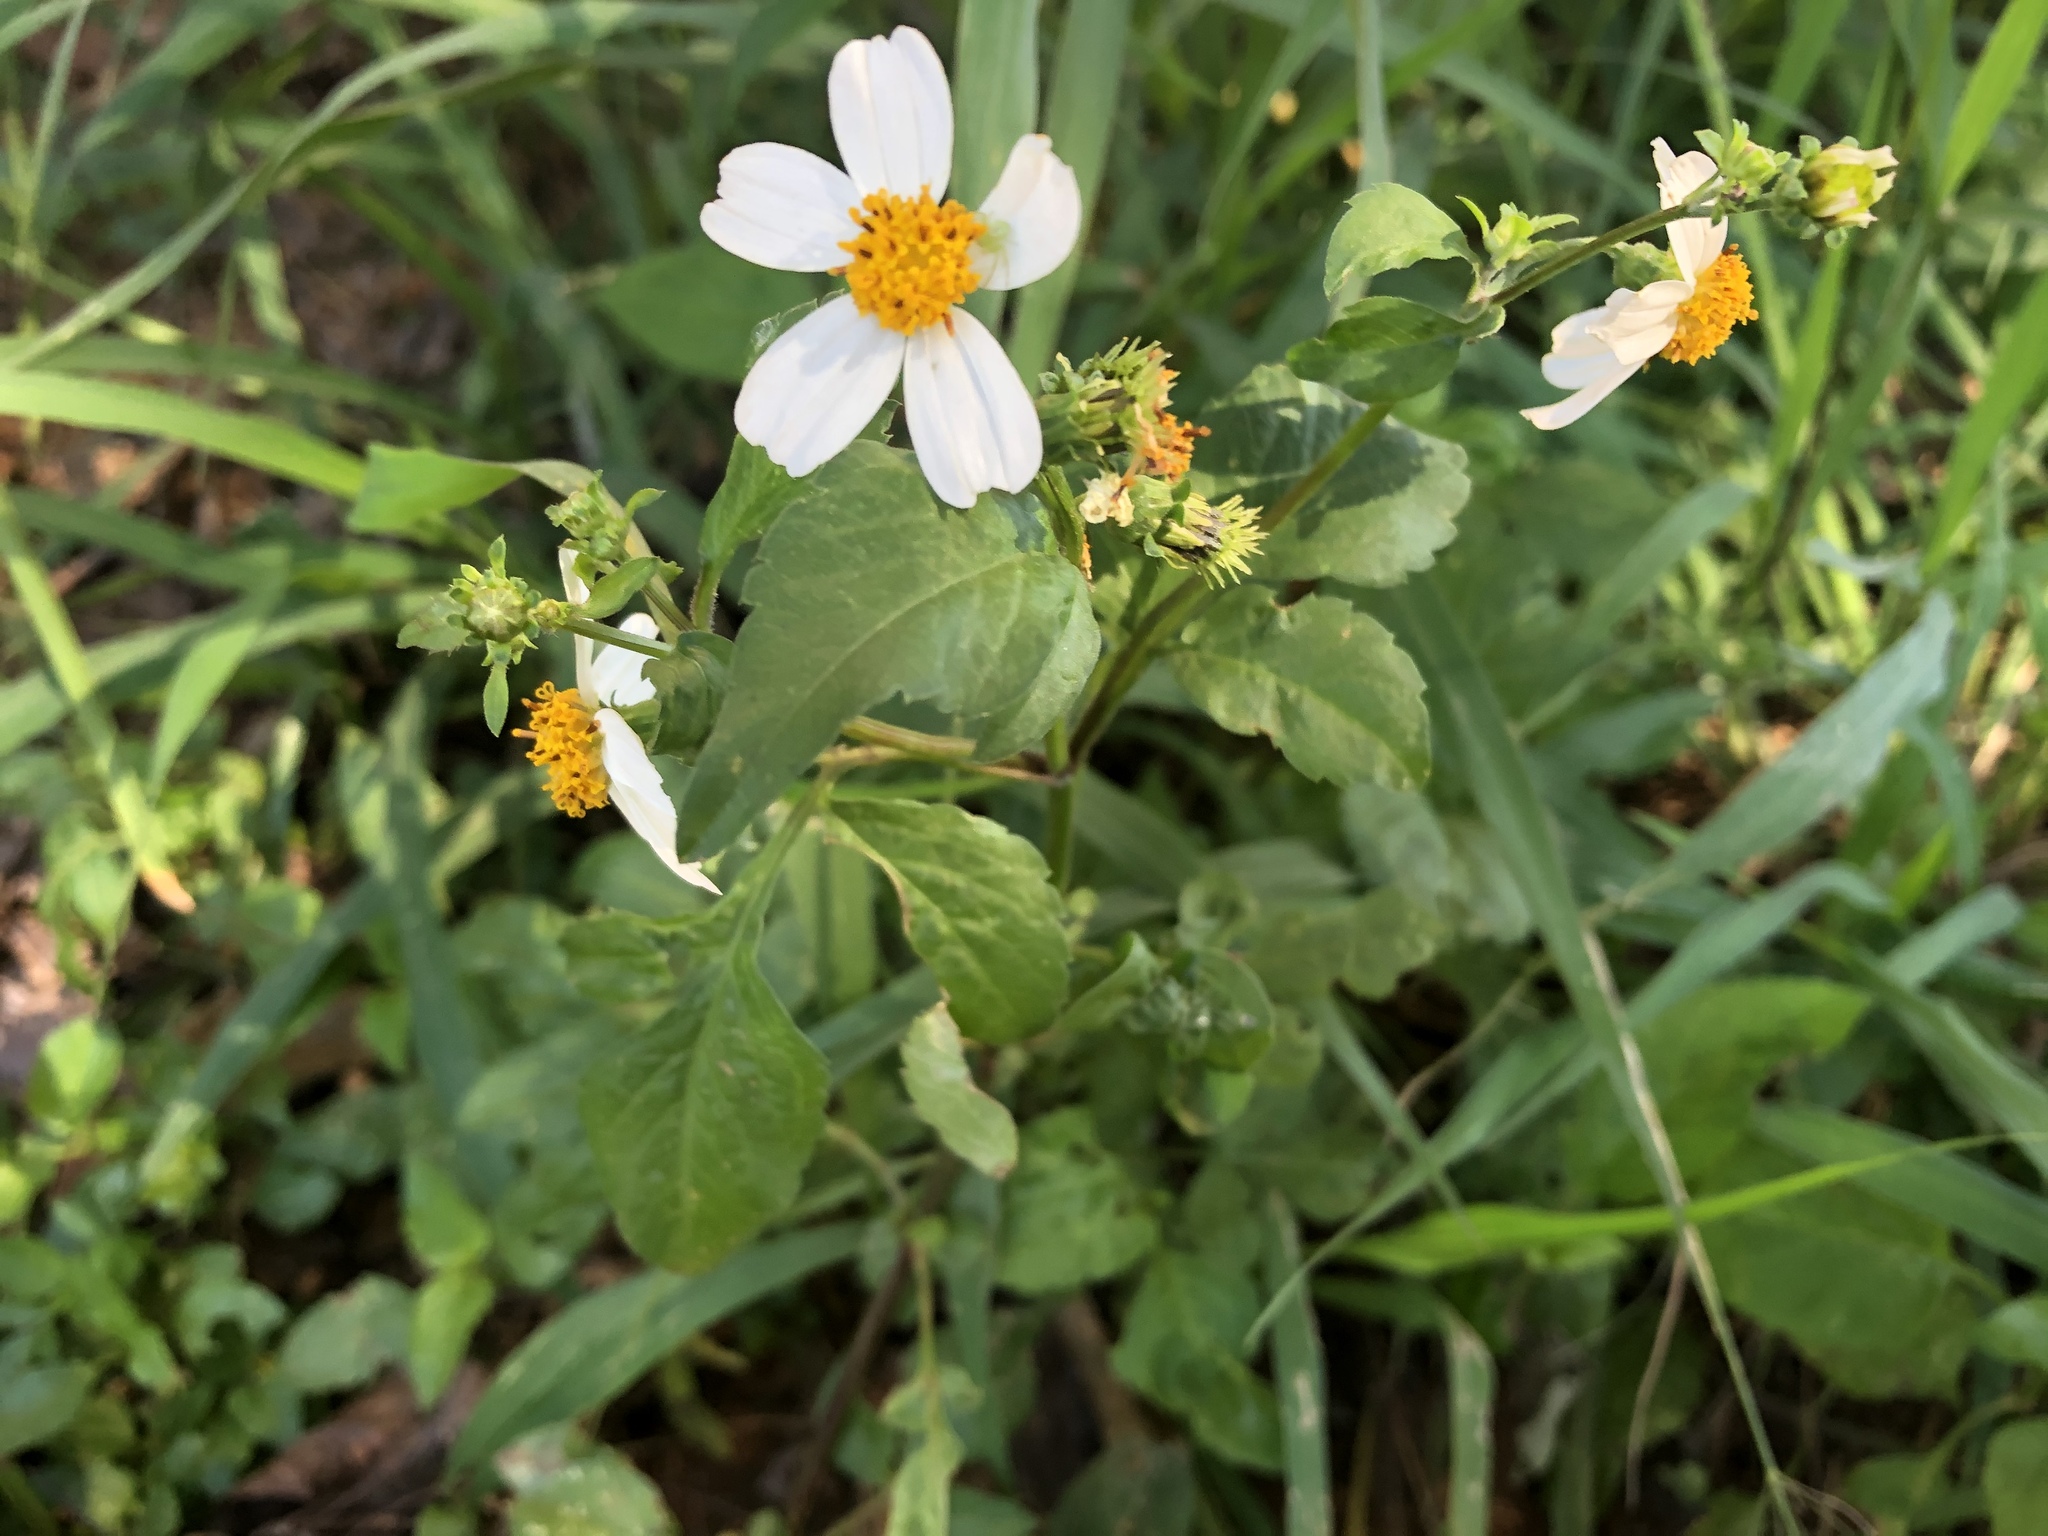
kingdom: Plantae
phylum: Tracheophyta
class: Magnoliopsida
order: Asterales
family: Asteraceae
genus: Bidens
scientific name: Bidens alba
